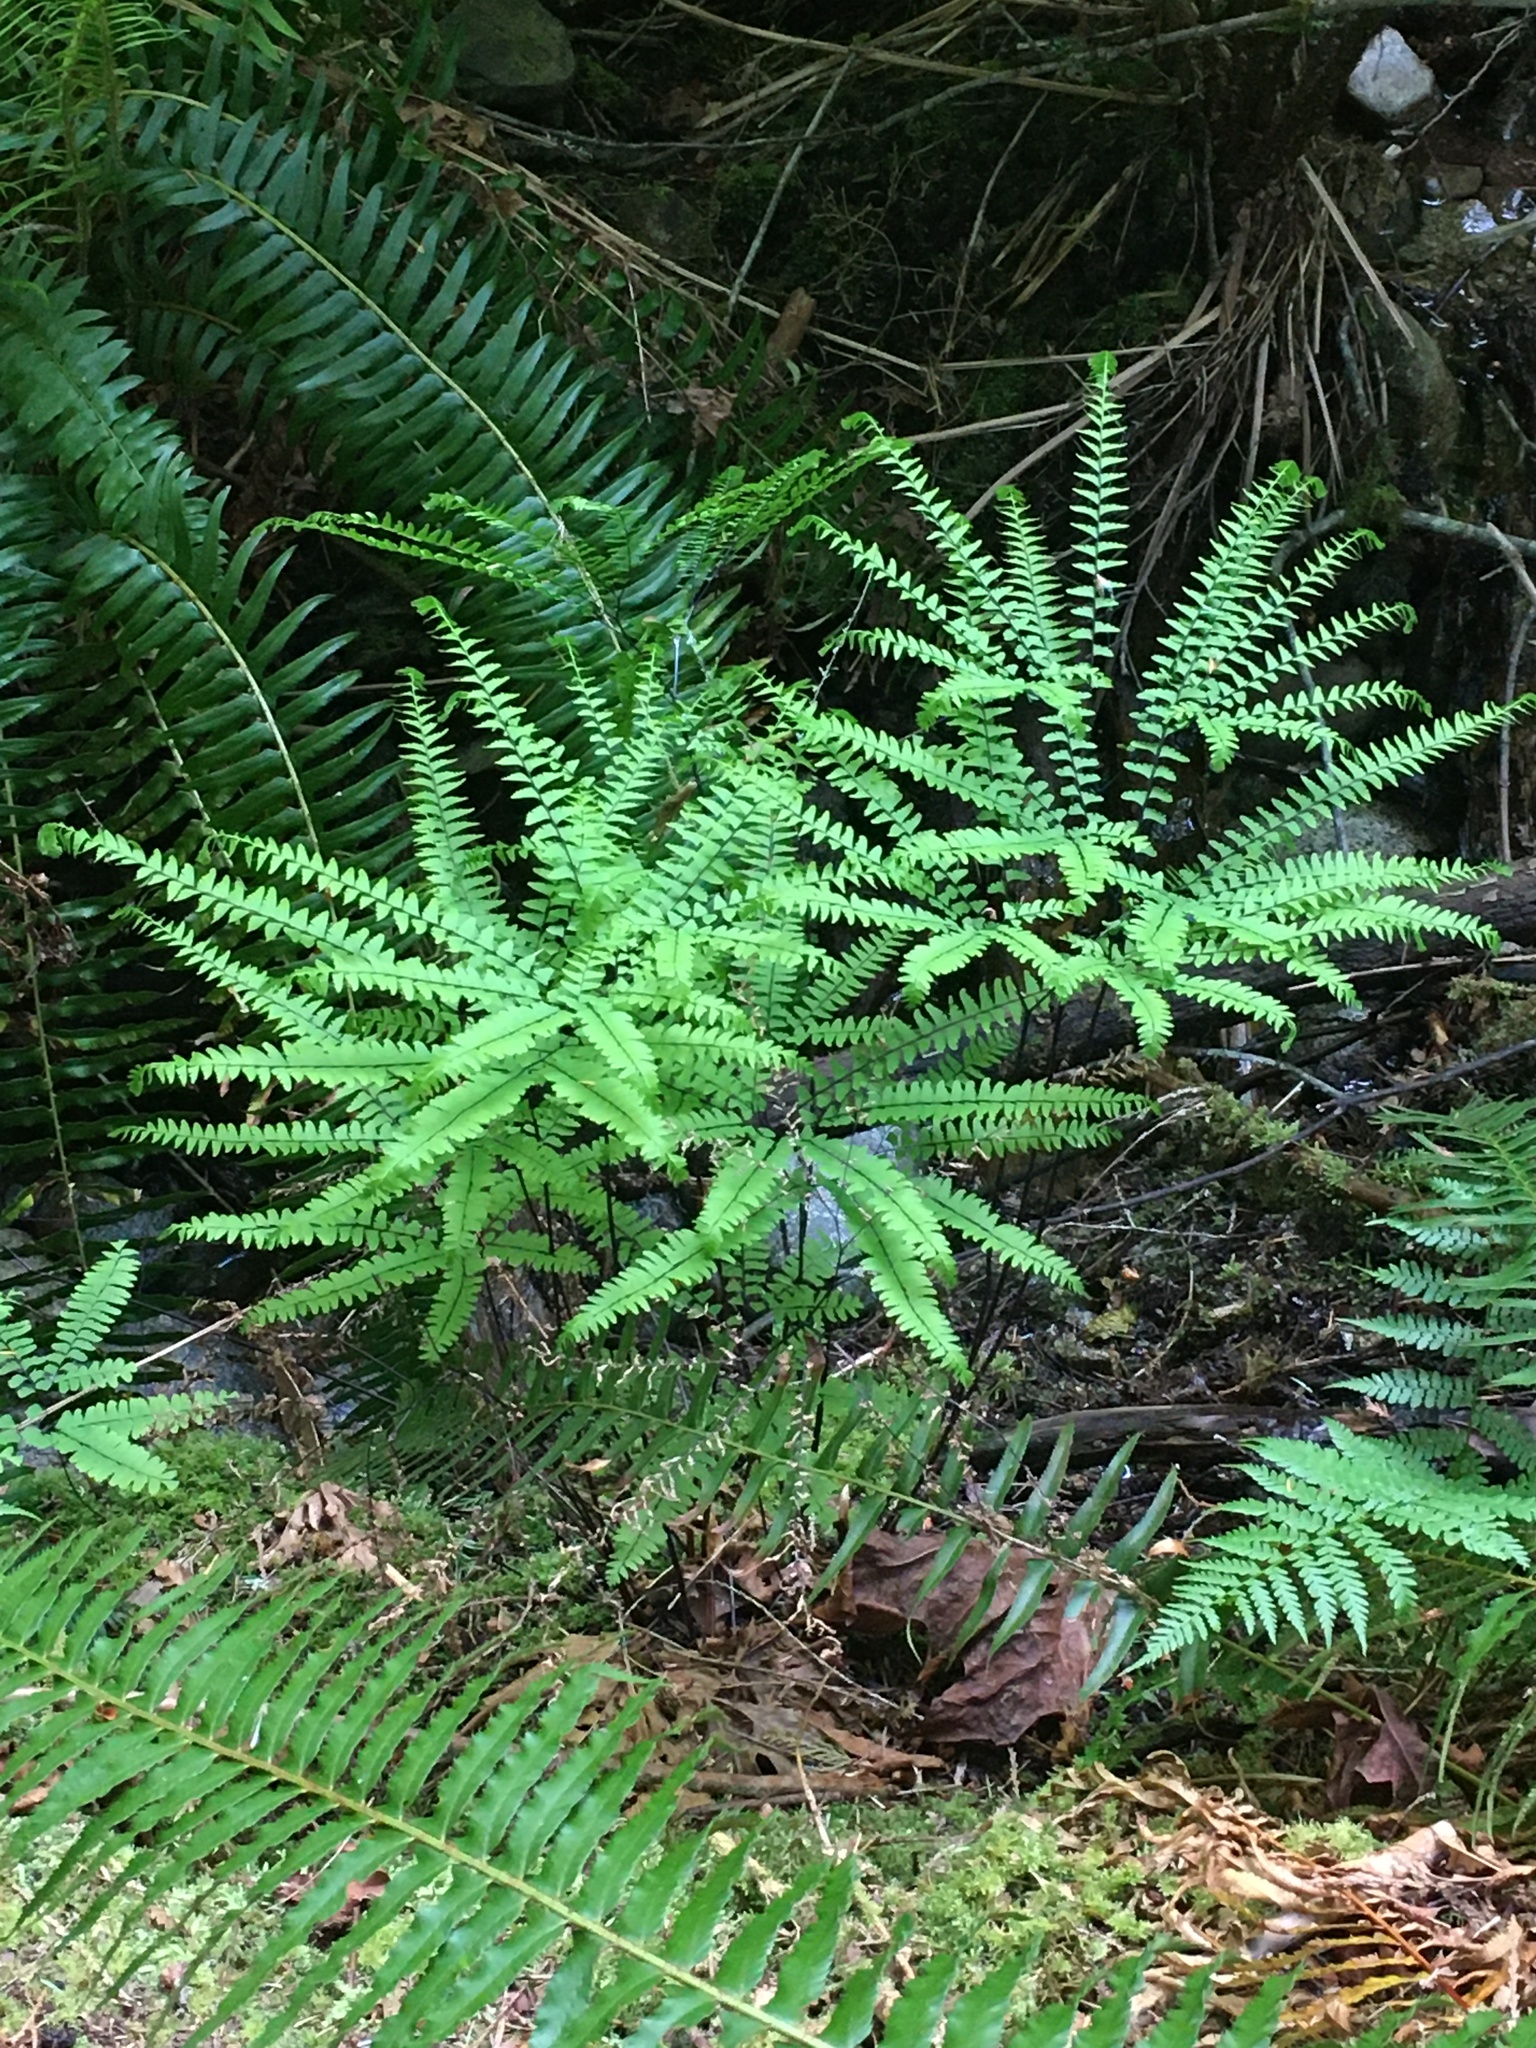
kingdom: Plantae
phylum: Tracheophyta
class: Polypodiopsida
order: Polypodiales
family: Pteridaceae
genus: Adiantum
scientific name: Adiantum aleuticum
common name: Aleutian maidenhair fern
